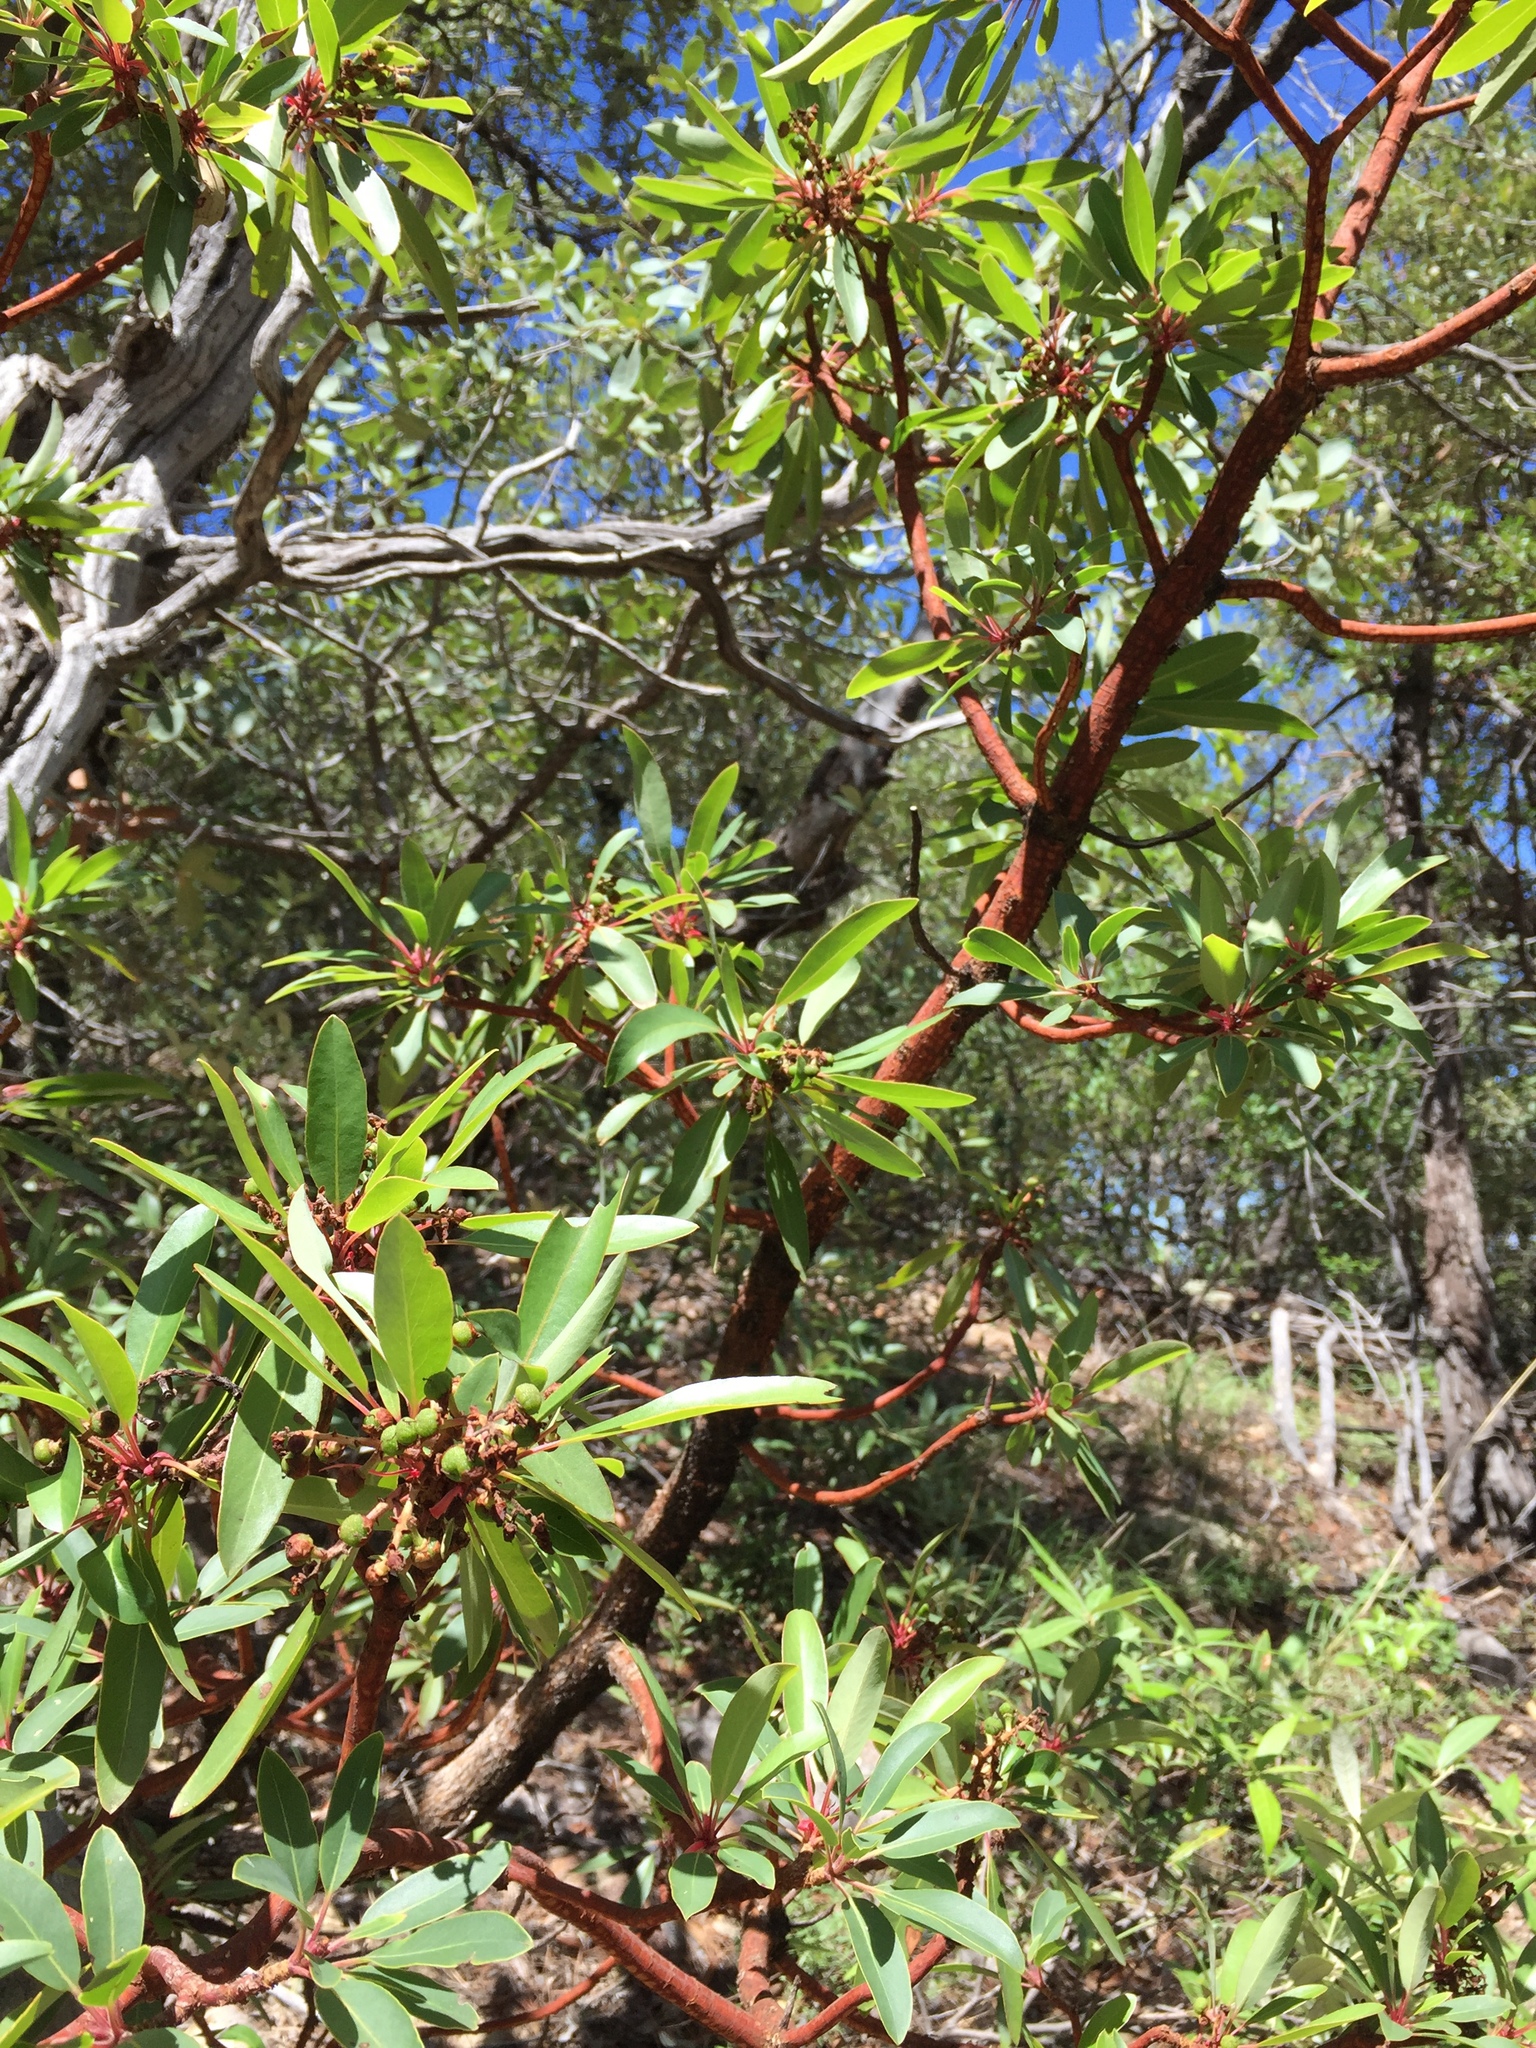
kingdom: Plantae
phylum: Tracheophyta
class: Magnoliopsida
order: Ericales
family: Ericaceae
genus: Arbutus
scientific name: Arbutus arizonica
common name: Arizona madrone
